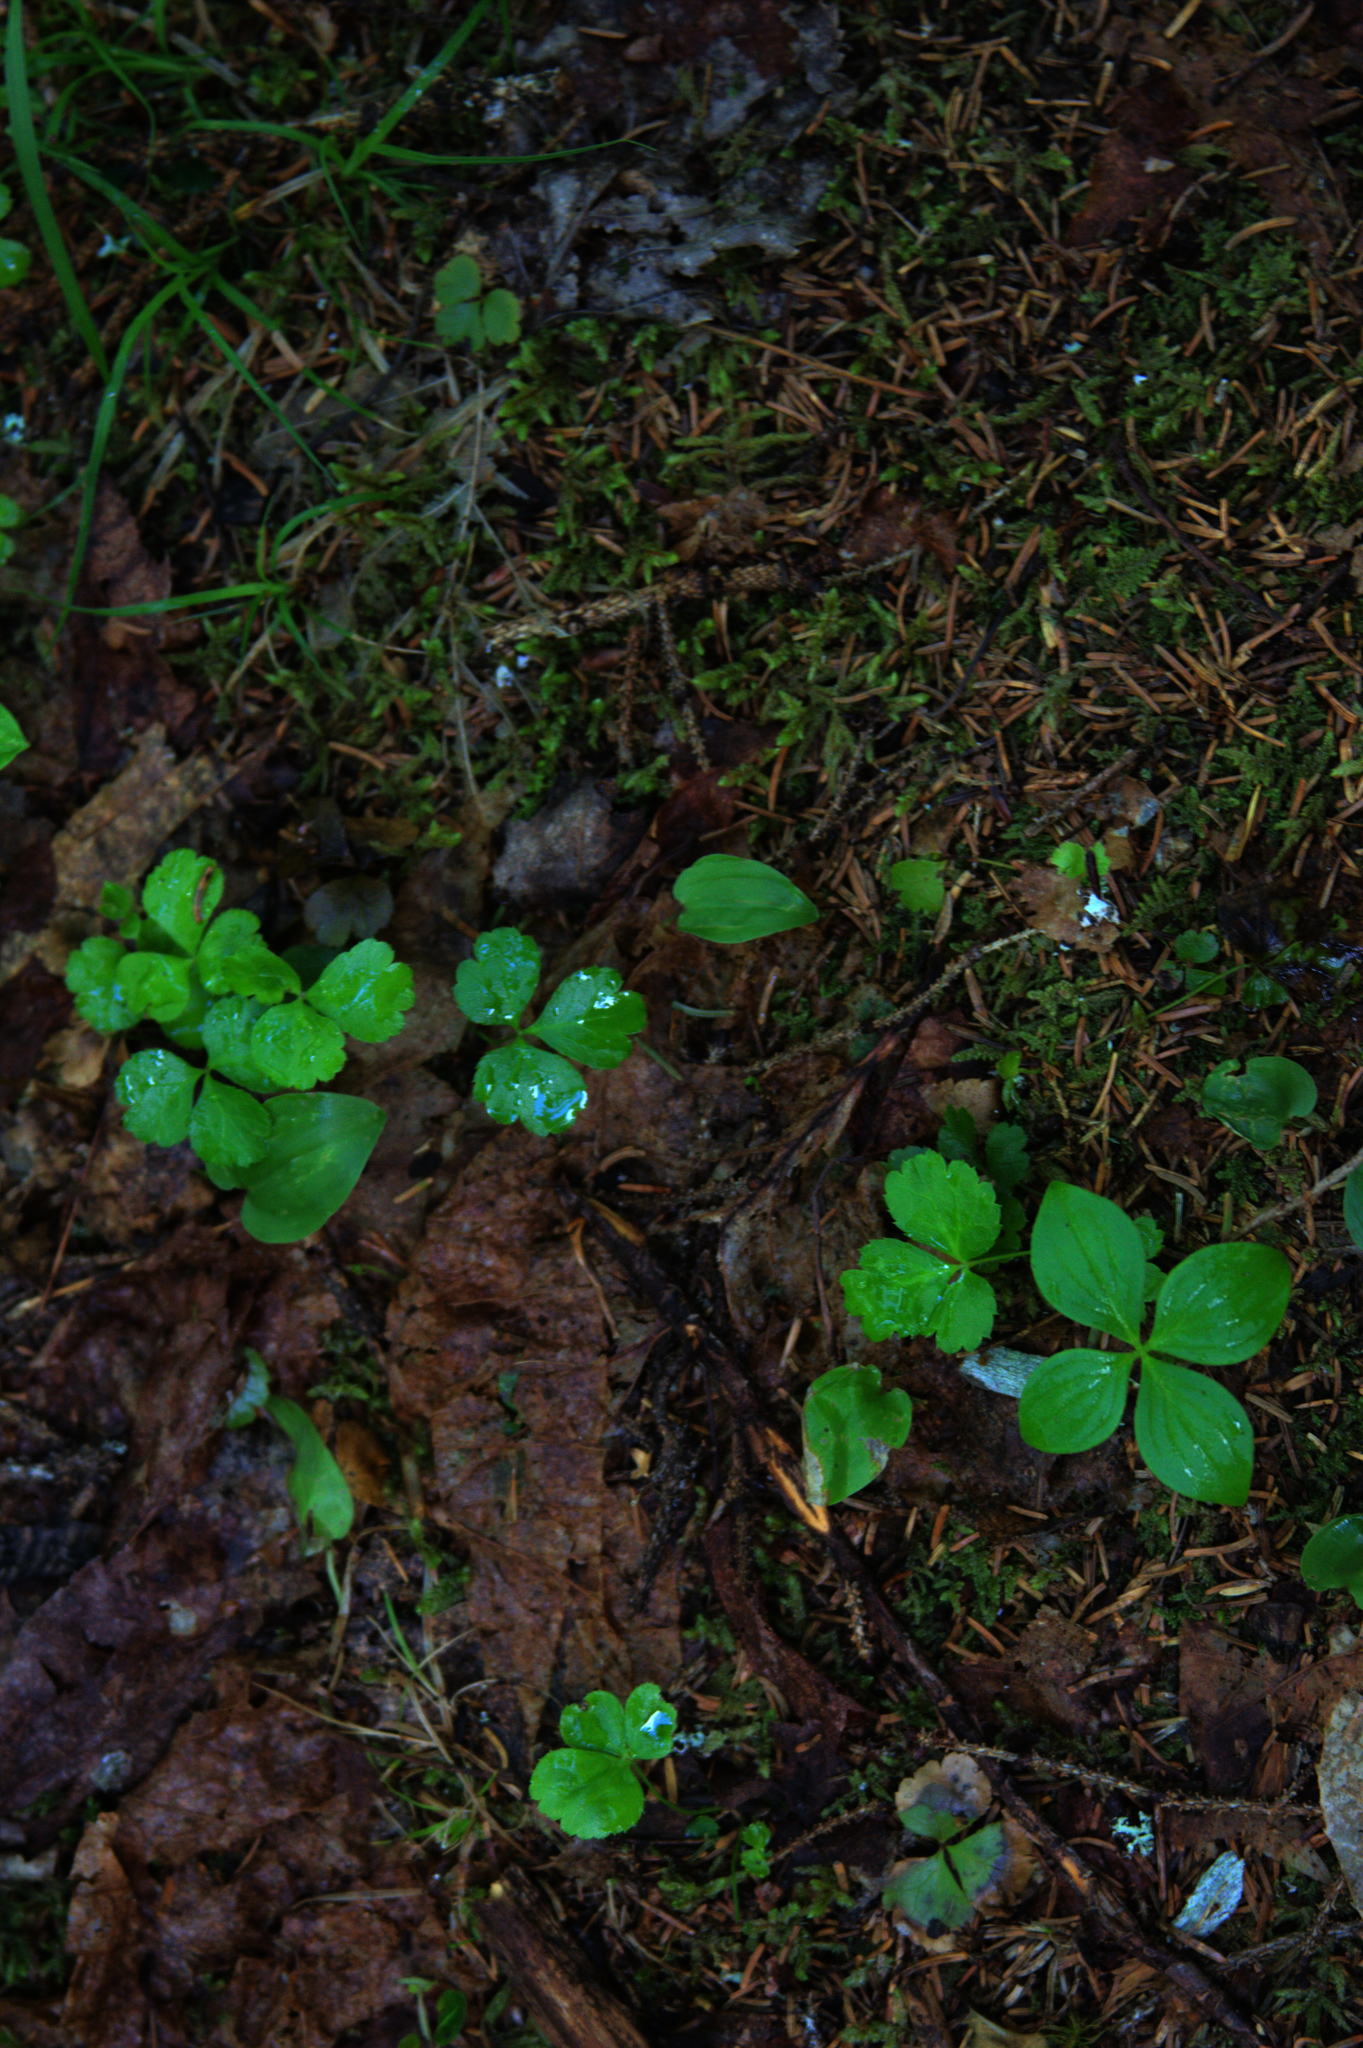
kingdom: Plantae
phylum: Tracheophyta
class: Magnoliopsida
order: Cornales
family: Cornaceae
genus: Cornus
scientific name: Cornus canadensis
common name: Creeping dogwood
